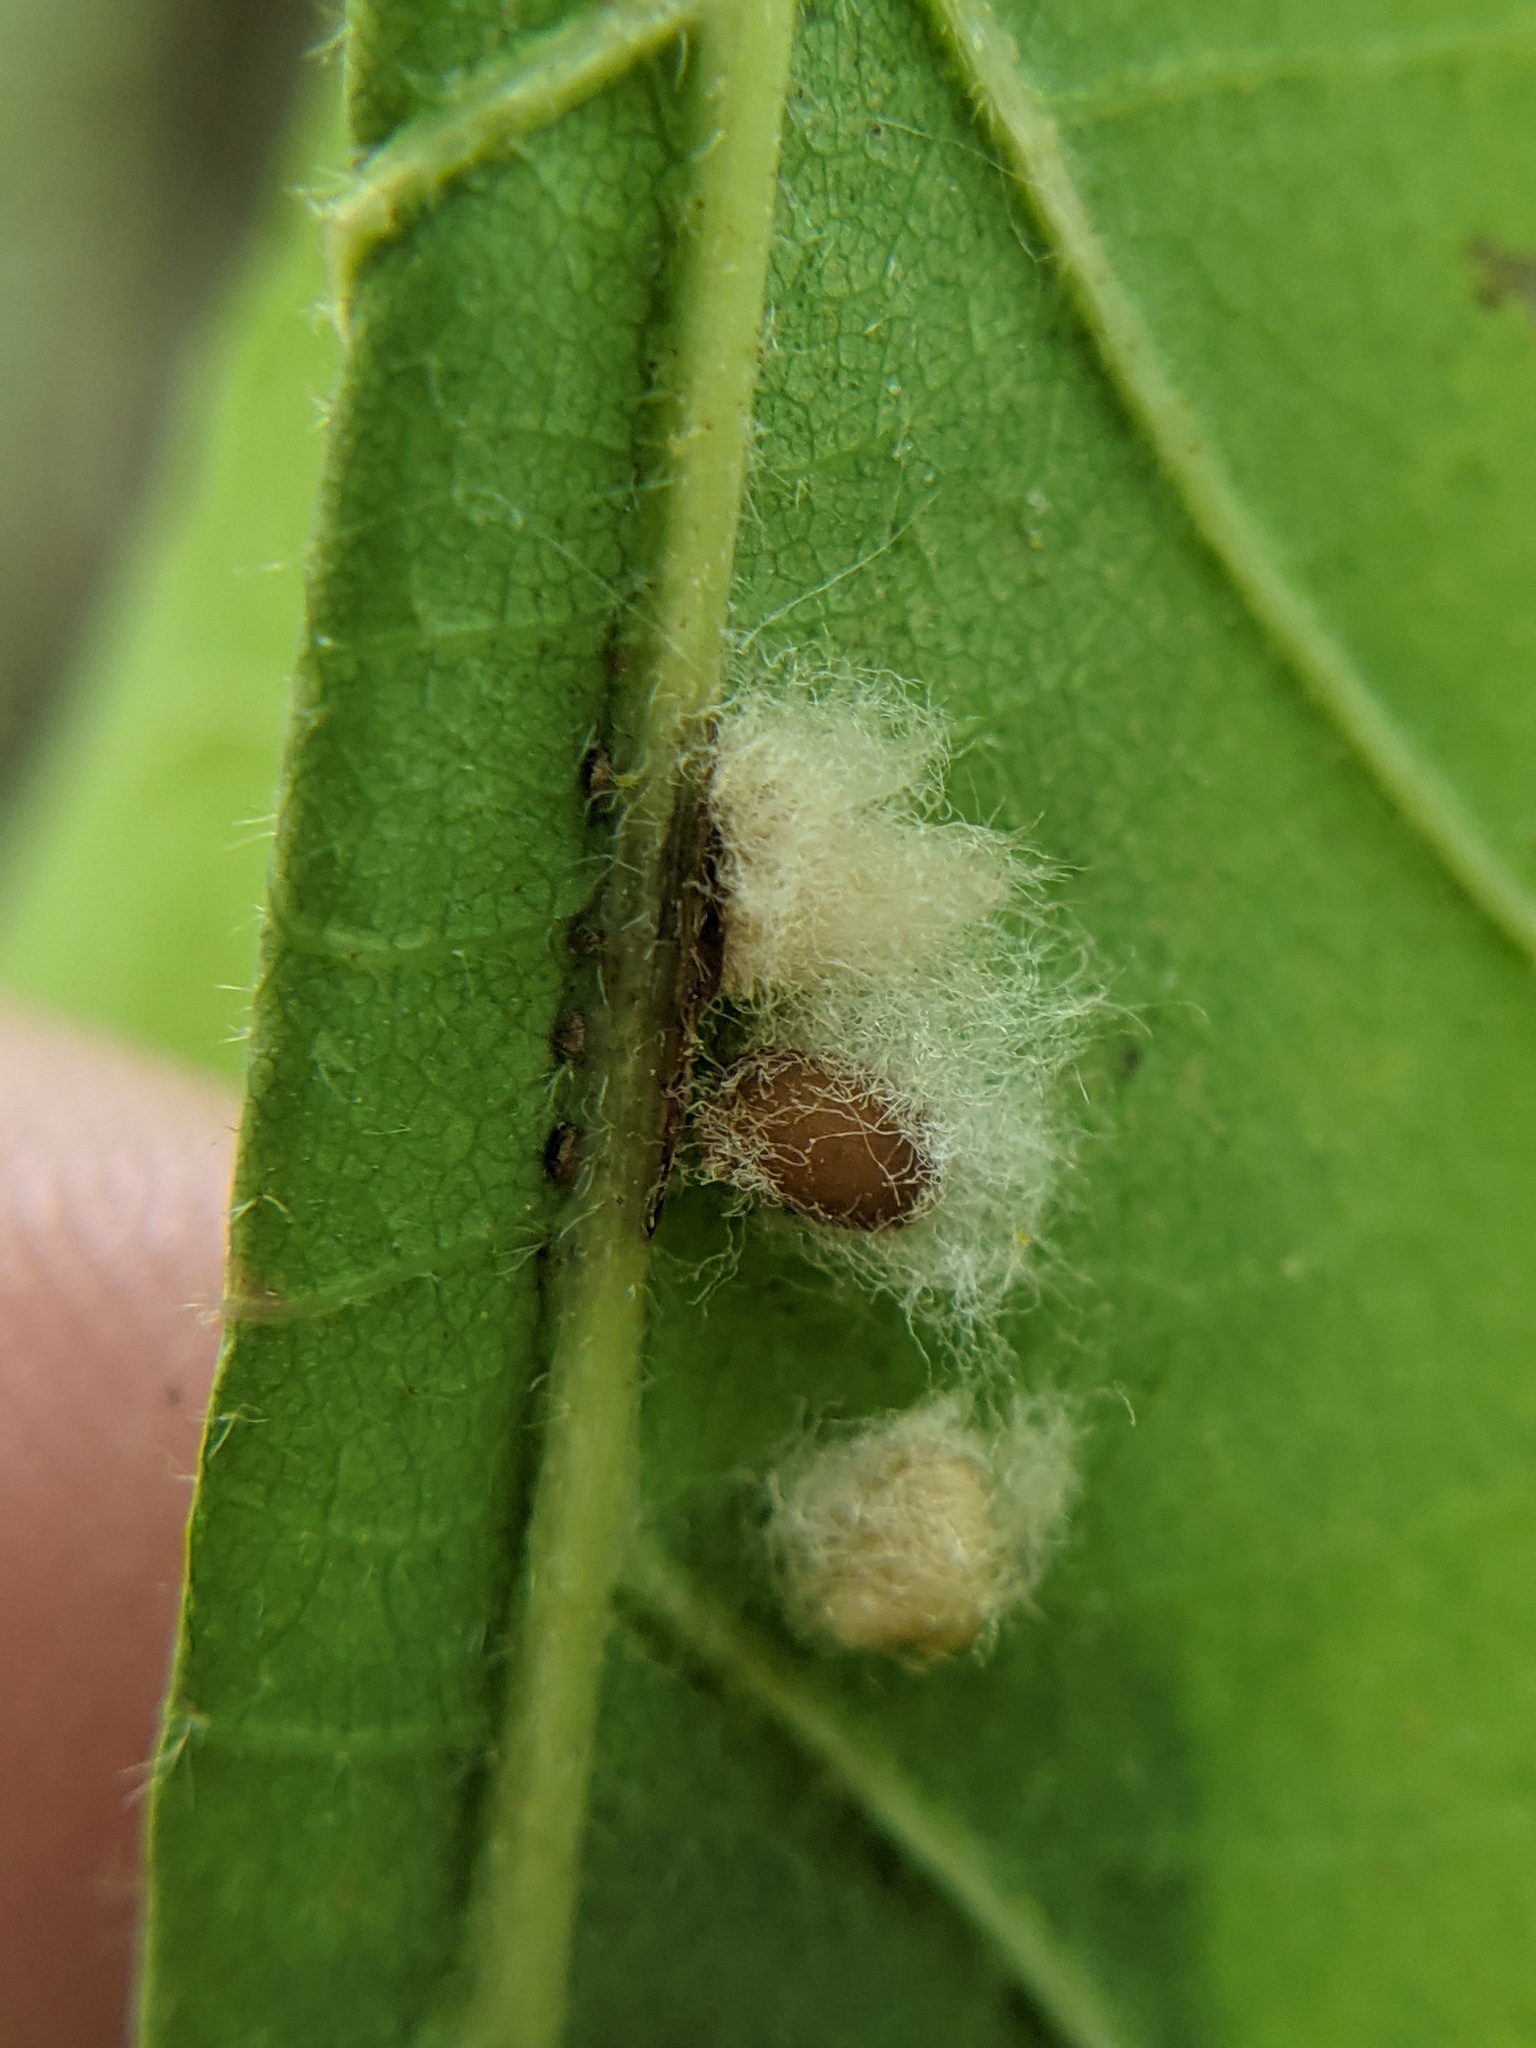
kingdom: Animalia
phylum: Arthropoda
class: Insecta
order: Hymenoptera
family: Cynipidae
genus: Andricus
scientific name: Andricus Druon ignotum
